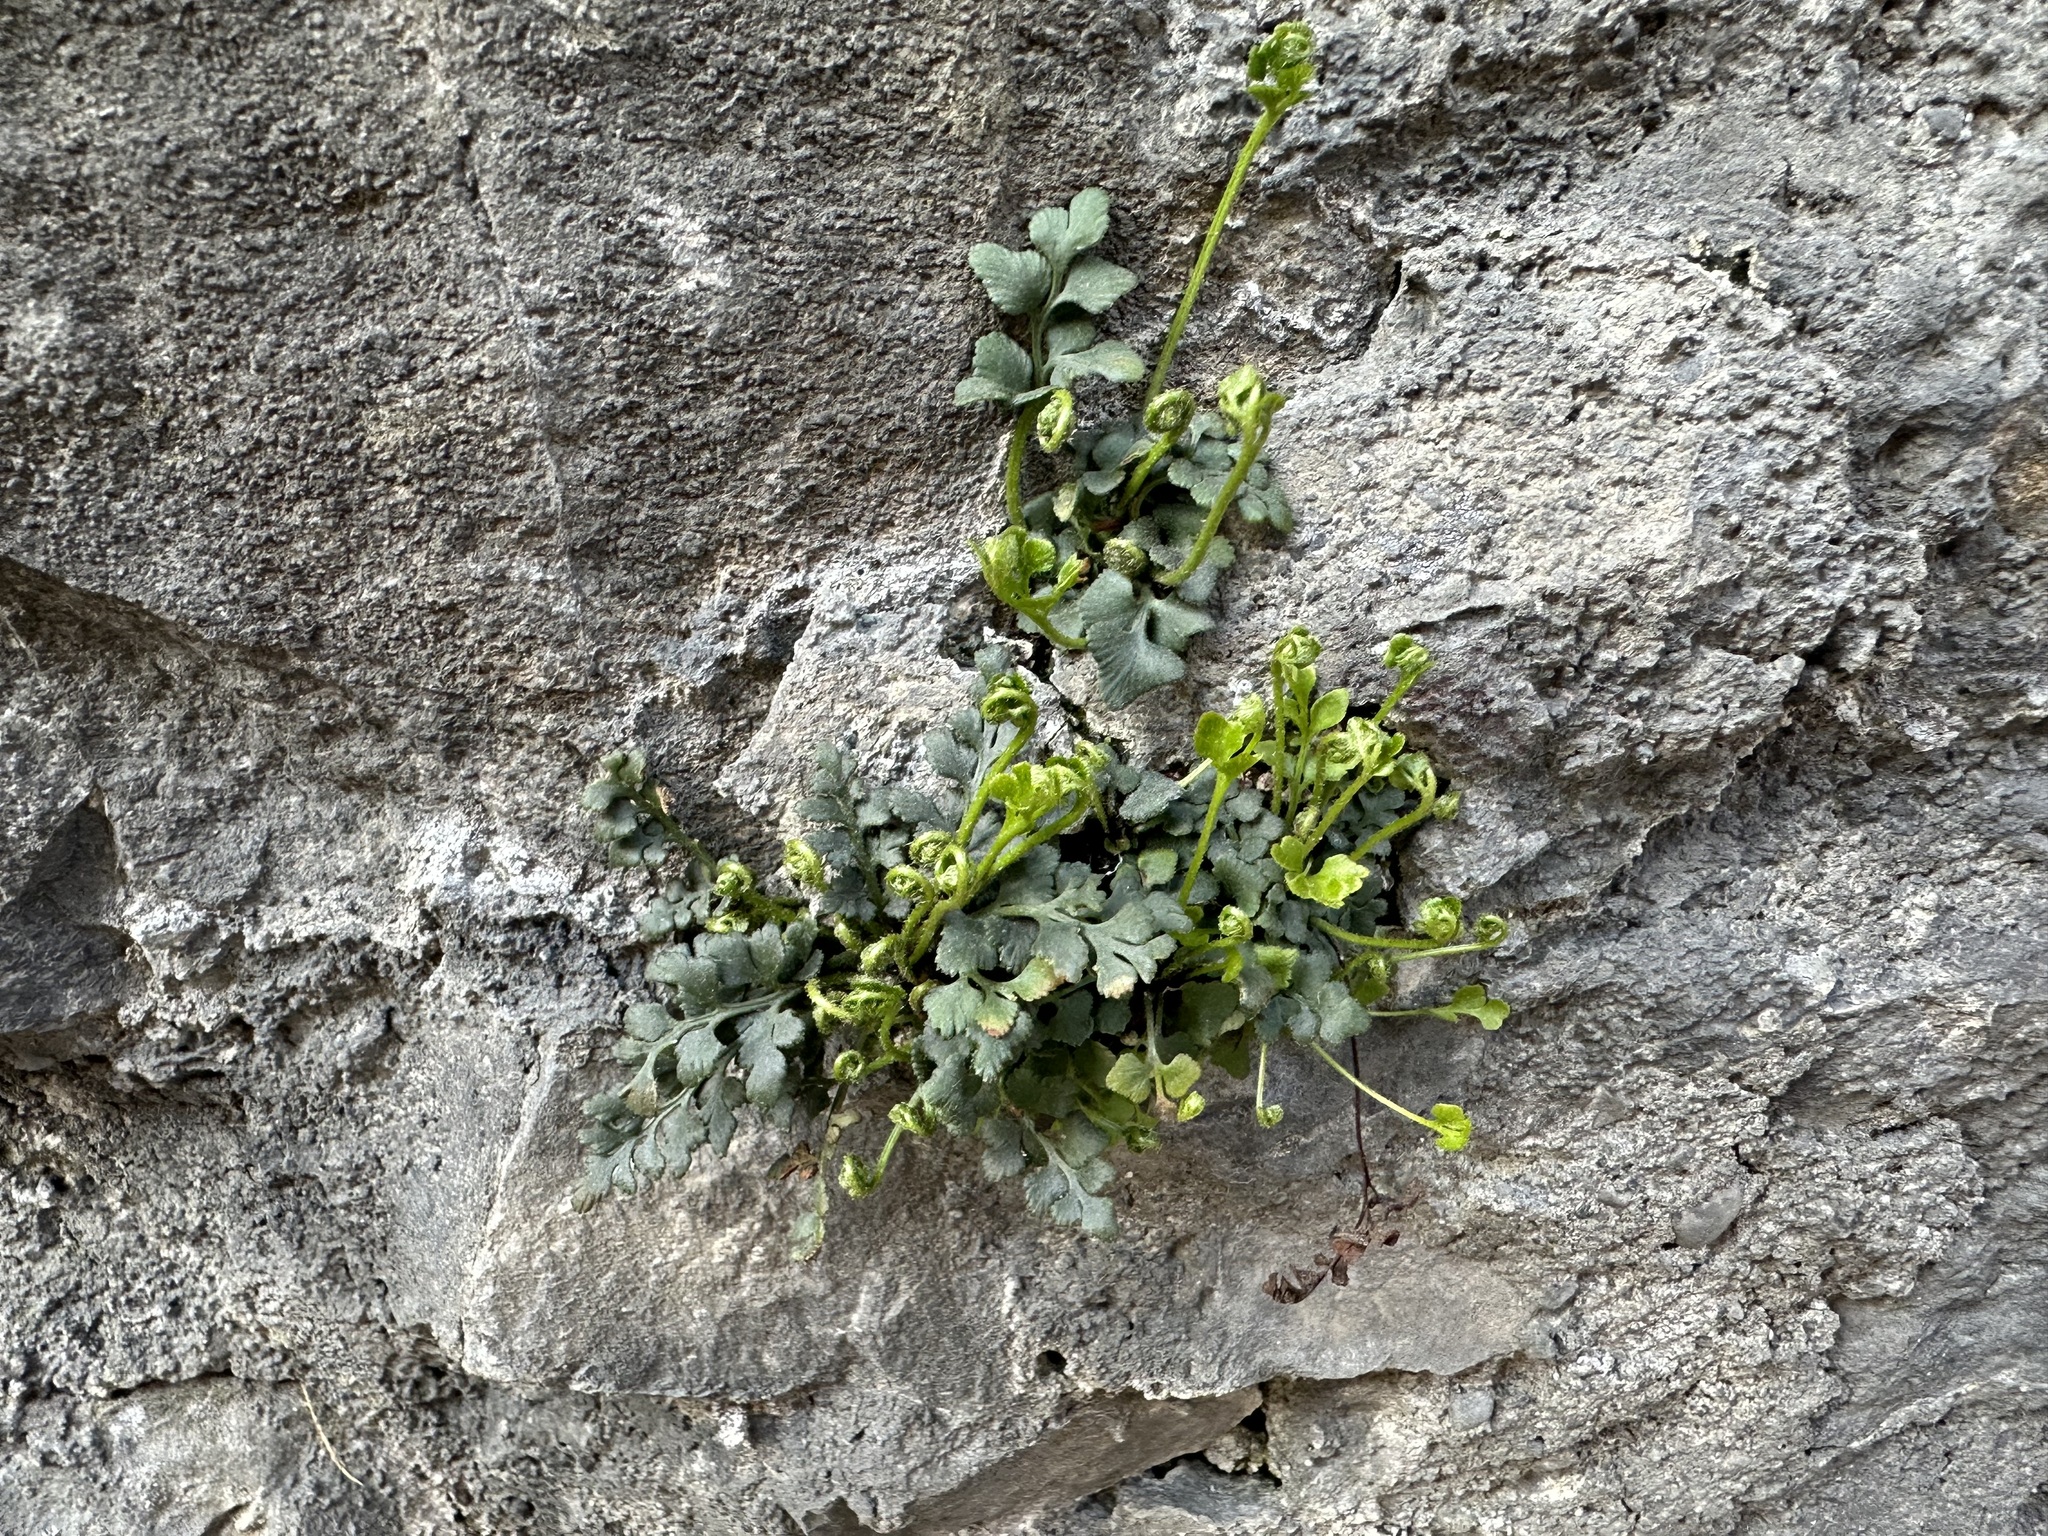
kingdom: Plantae
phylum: Tracheophyta
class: Polypodiopsida
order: Polypodiales
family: Aspleniaceae
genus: Asplenium
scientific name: Asplenium ruta-muraria
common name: Wall-rue
